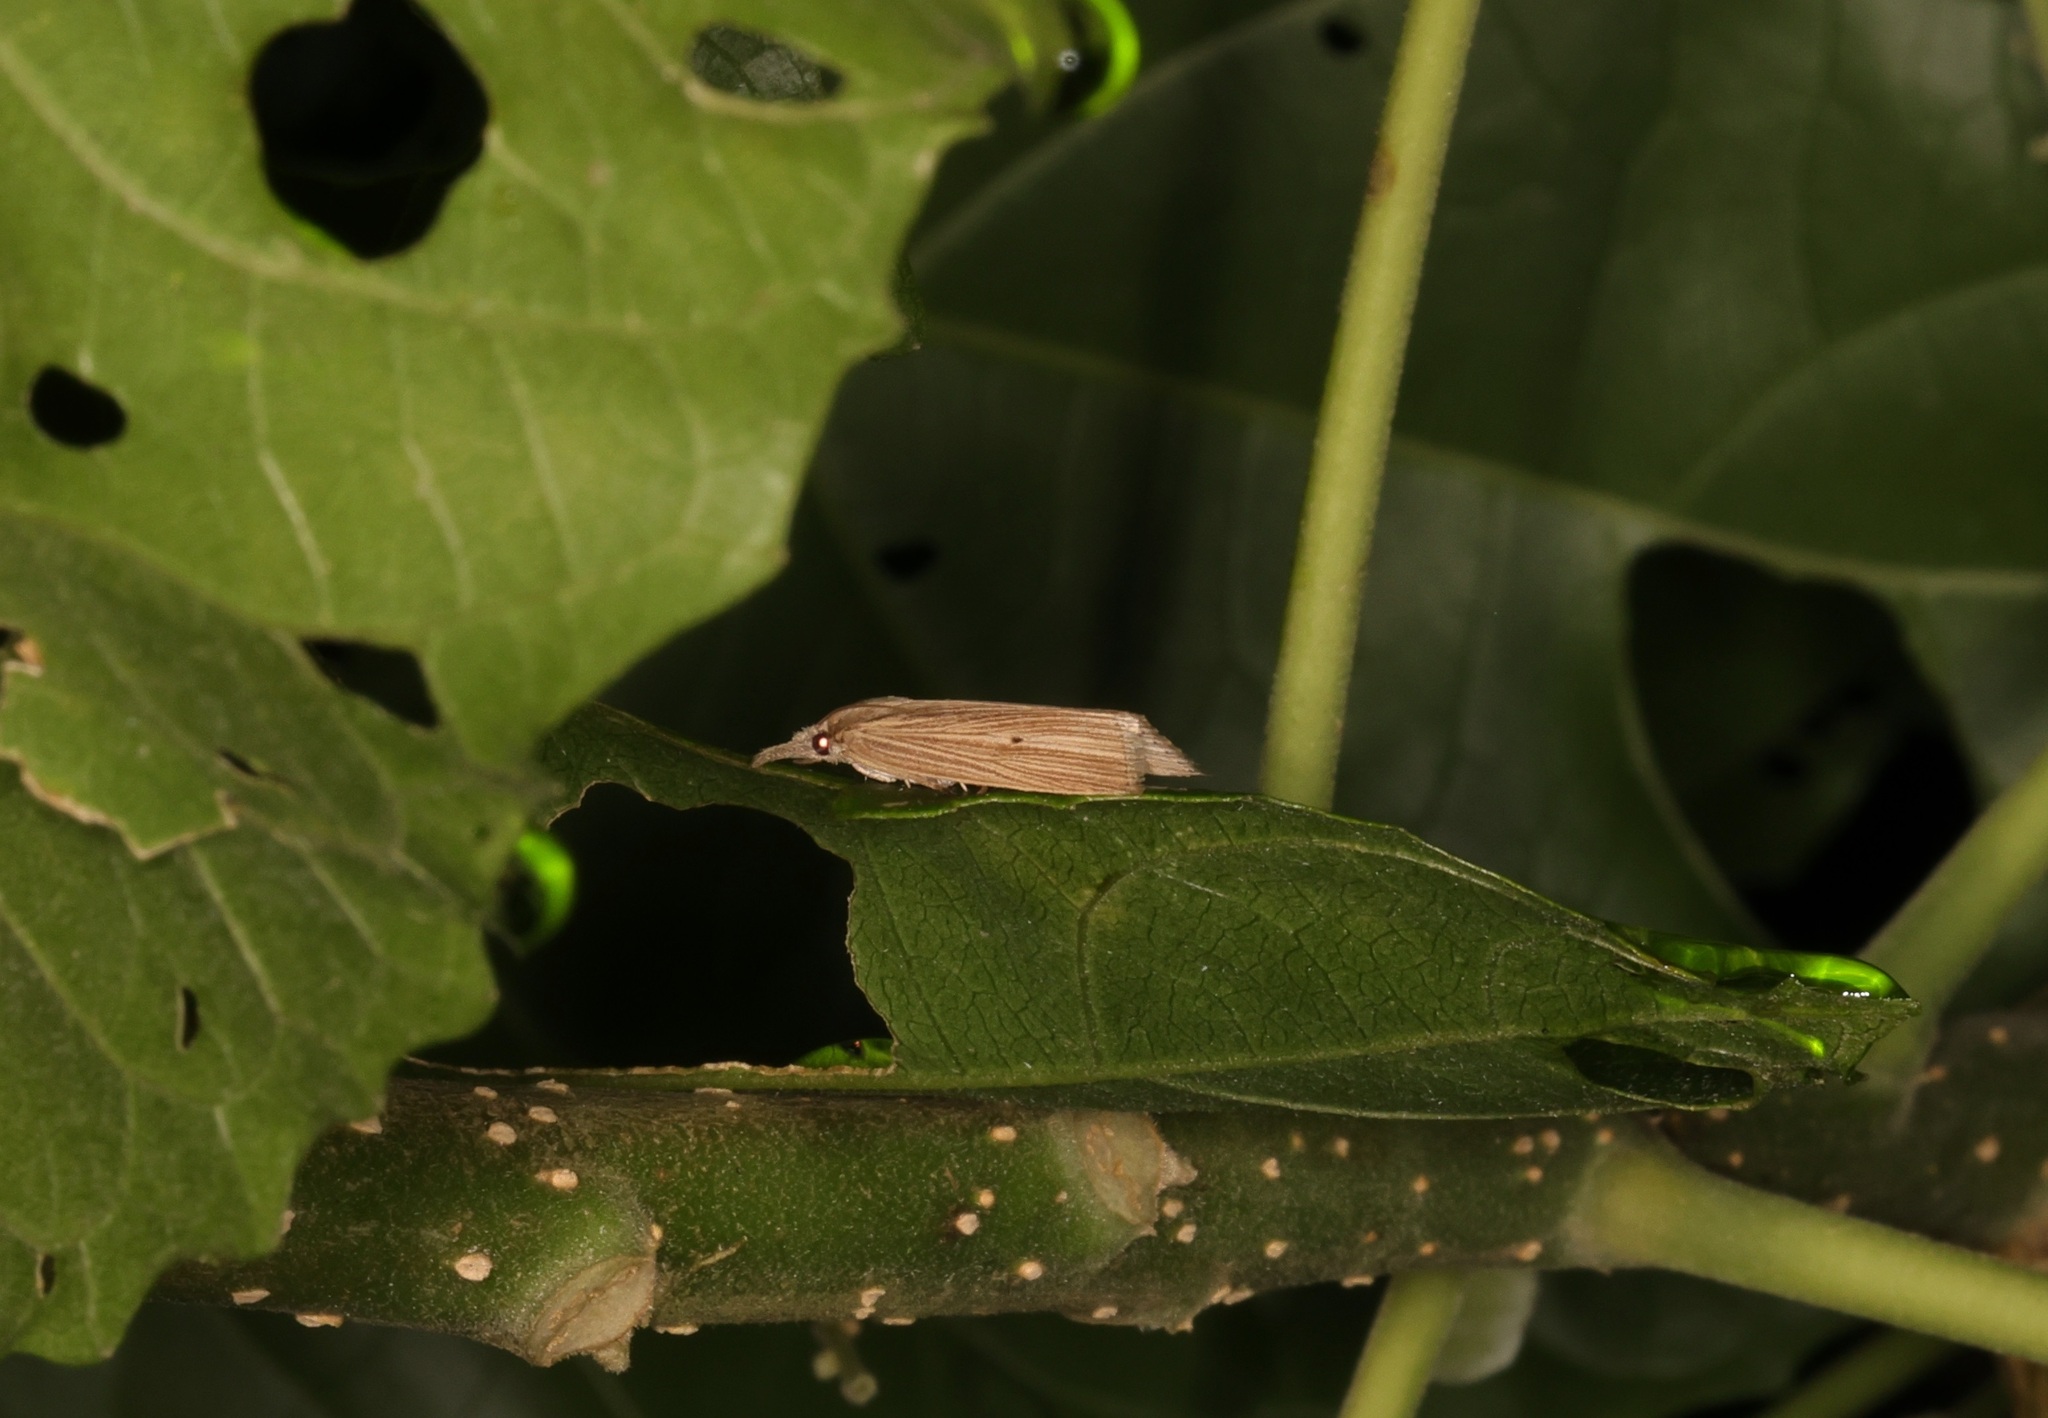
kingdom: Animalia
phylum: Arthropoda
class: Insecta
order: Lepidoptera
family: Crambidae
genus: Chilo
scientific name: Chilo sacchariphagus
